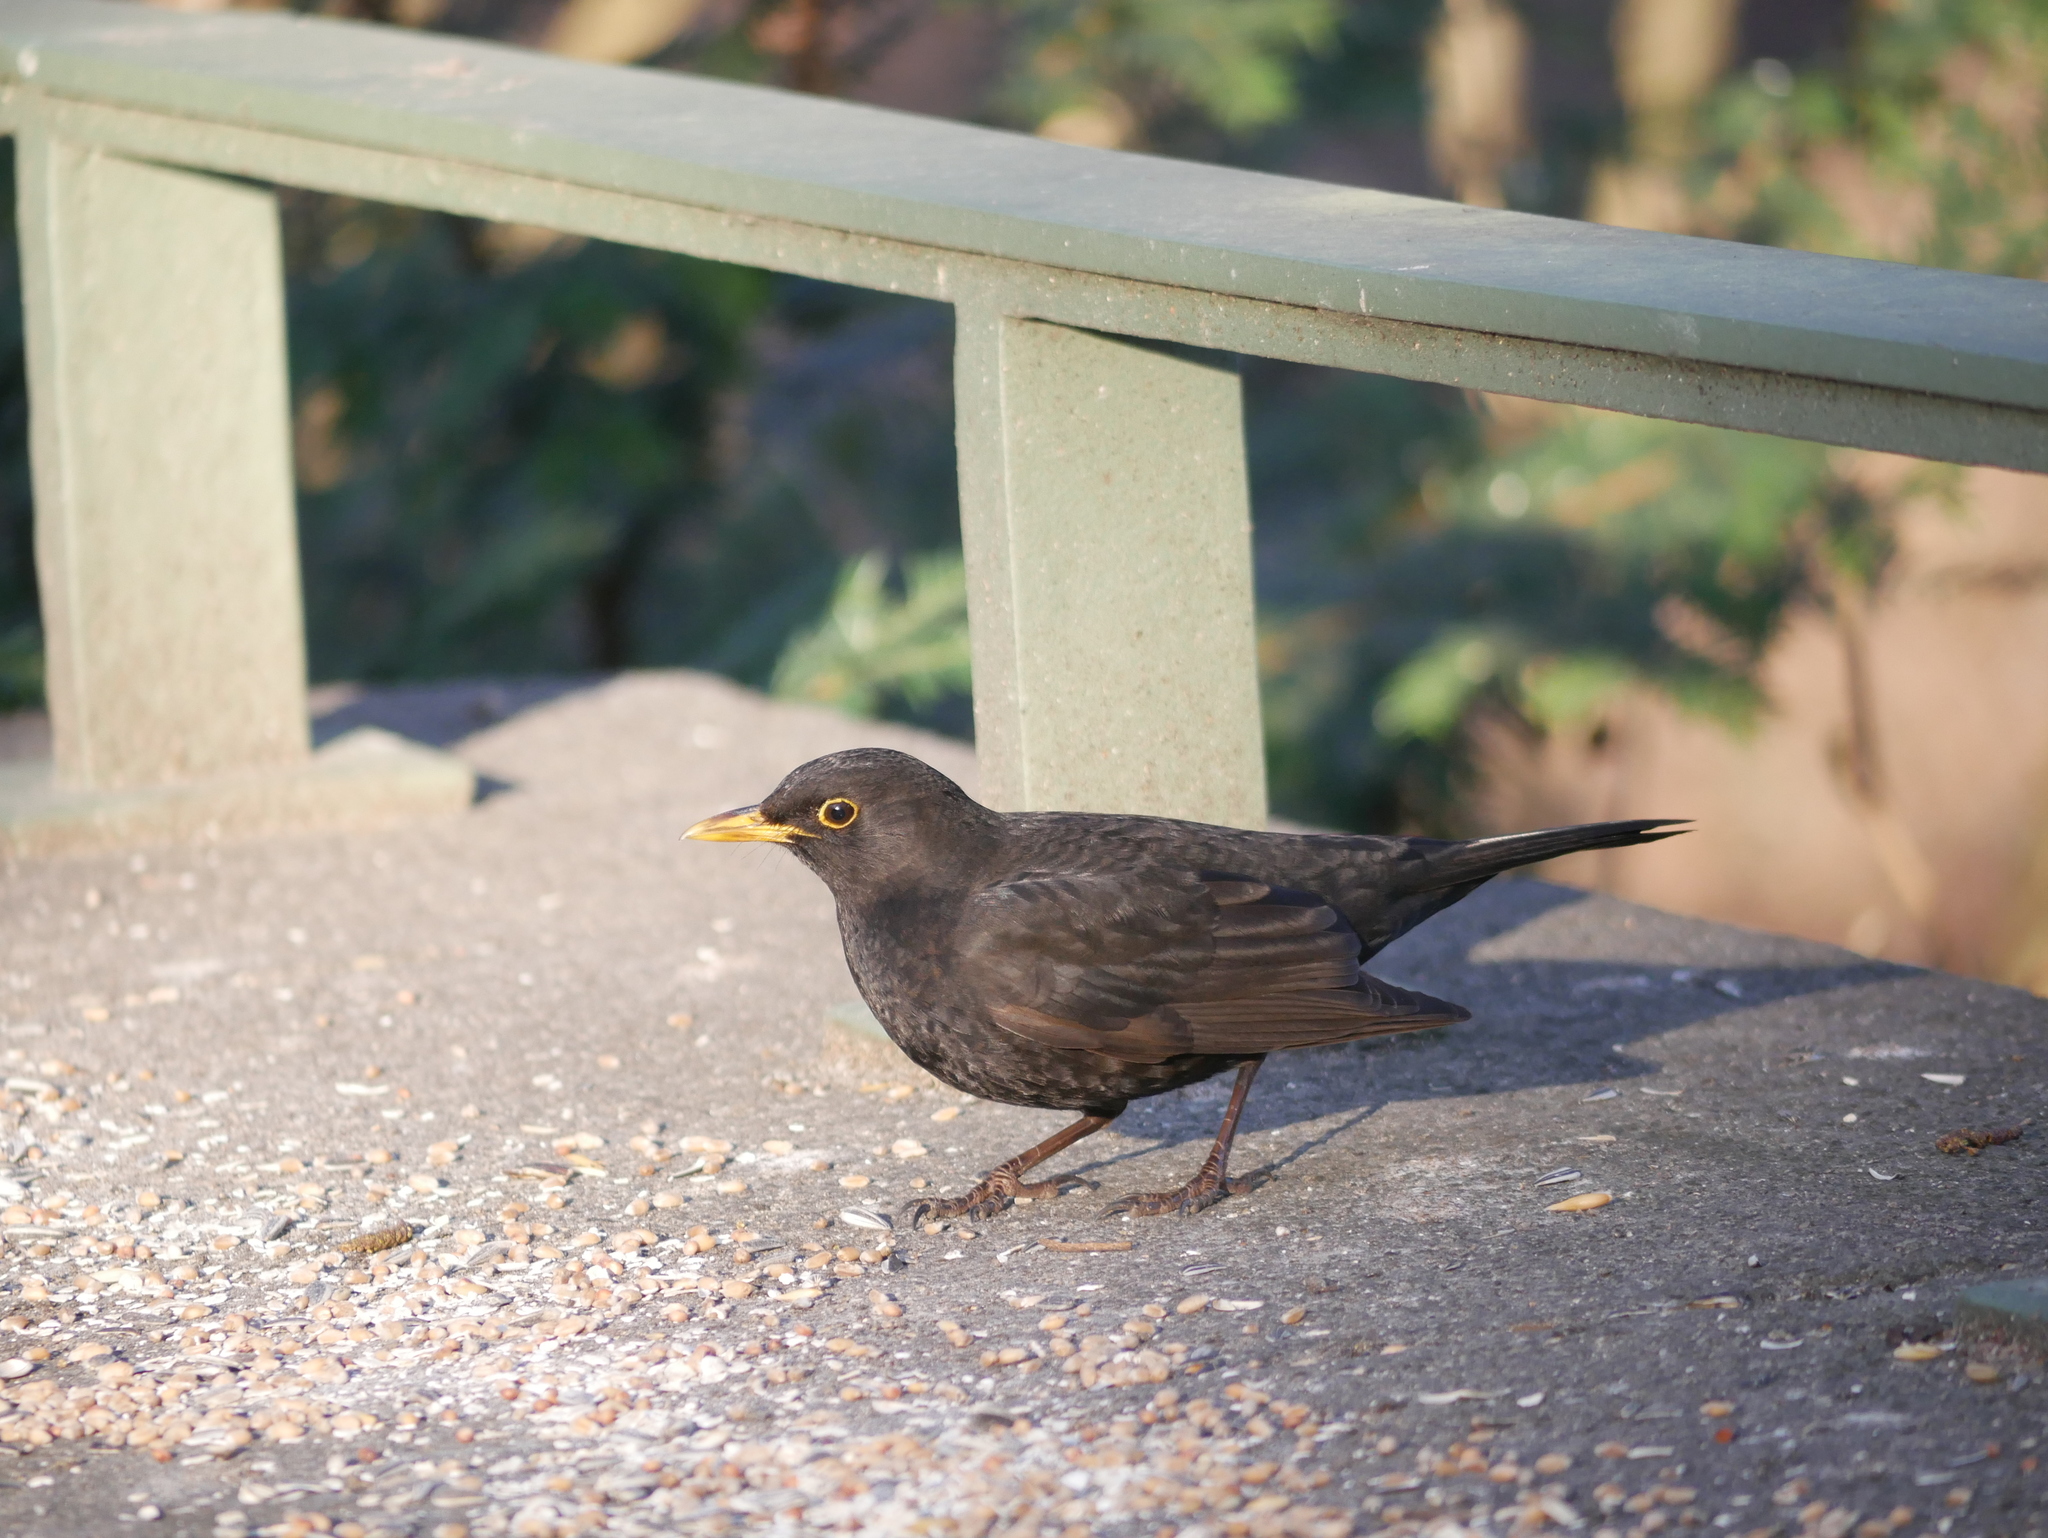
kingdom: Animalia
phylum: Chordata
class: Aves
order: Passeriformes
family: Turdidae
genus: Turdus
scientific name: Turdus merula
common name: Common blackbird
